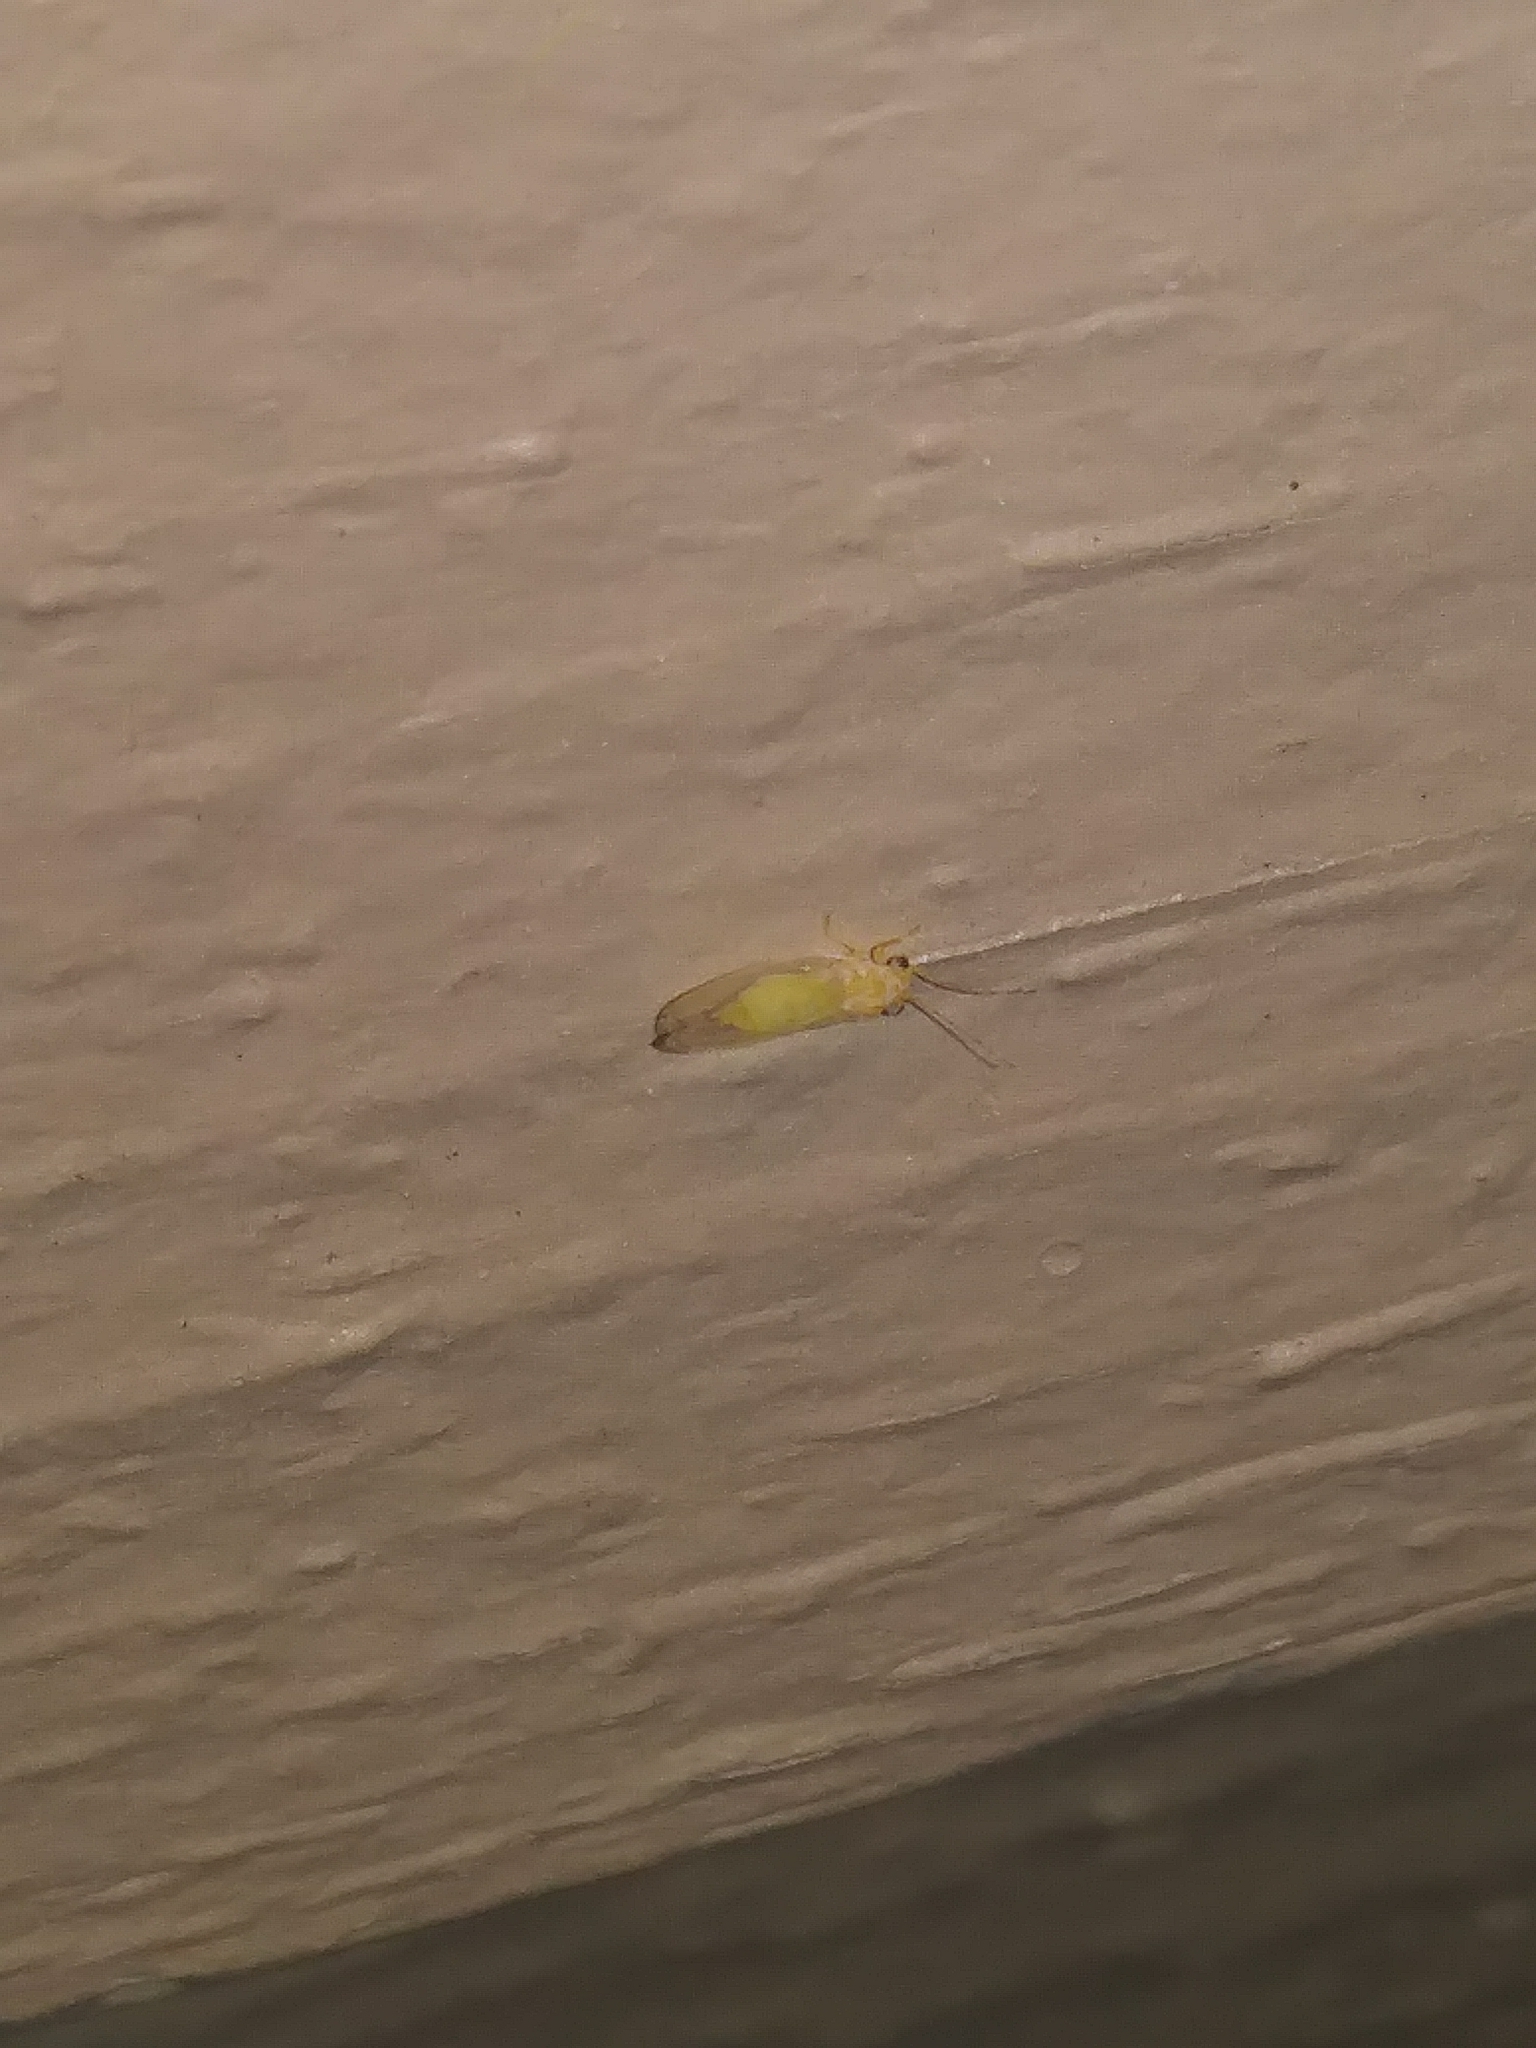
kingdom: Animalia
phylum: Arthropoda
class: Insecta
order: Hemiptera
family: Psyllidae
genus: Cacopsylla
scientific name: Cacopsylla annulata
